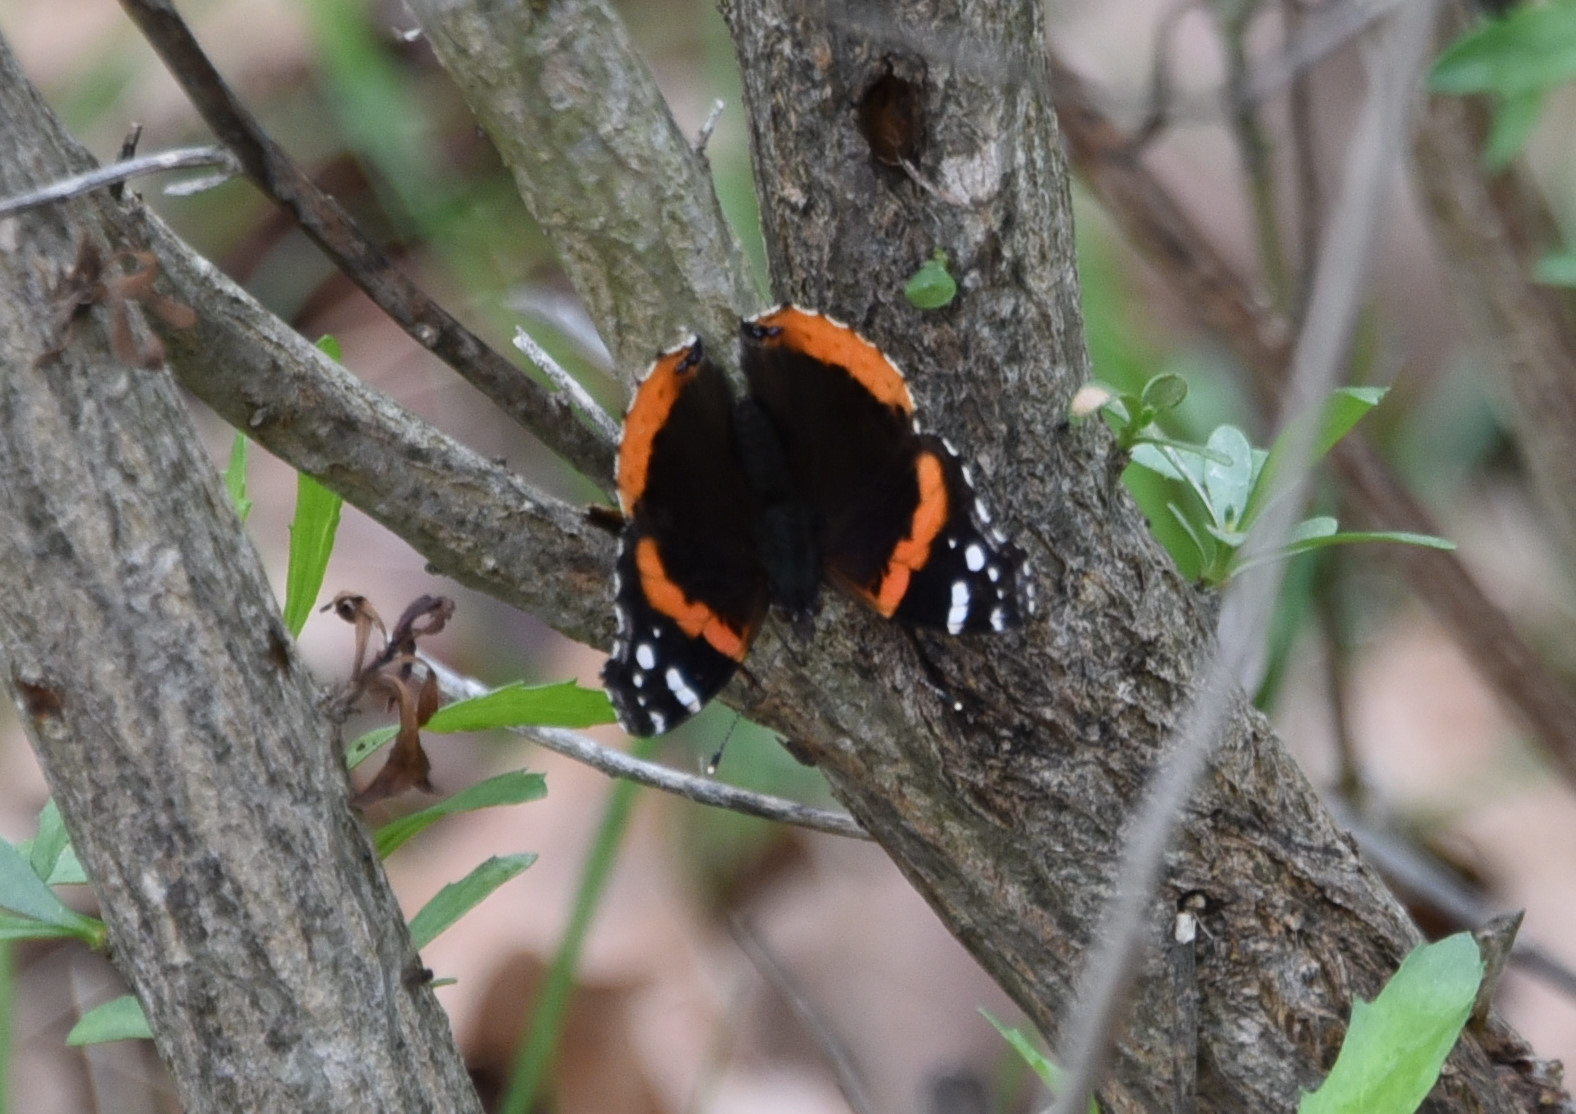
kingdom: Animalia
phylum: Arthropoda
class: Insecta
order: Lepidoptera
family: Nymphalidae
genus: Vanessa
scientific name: Vanessa atalanta
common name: Red admiral
